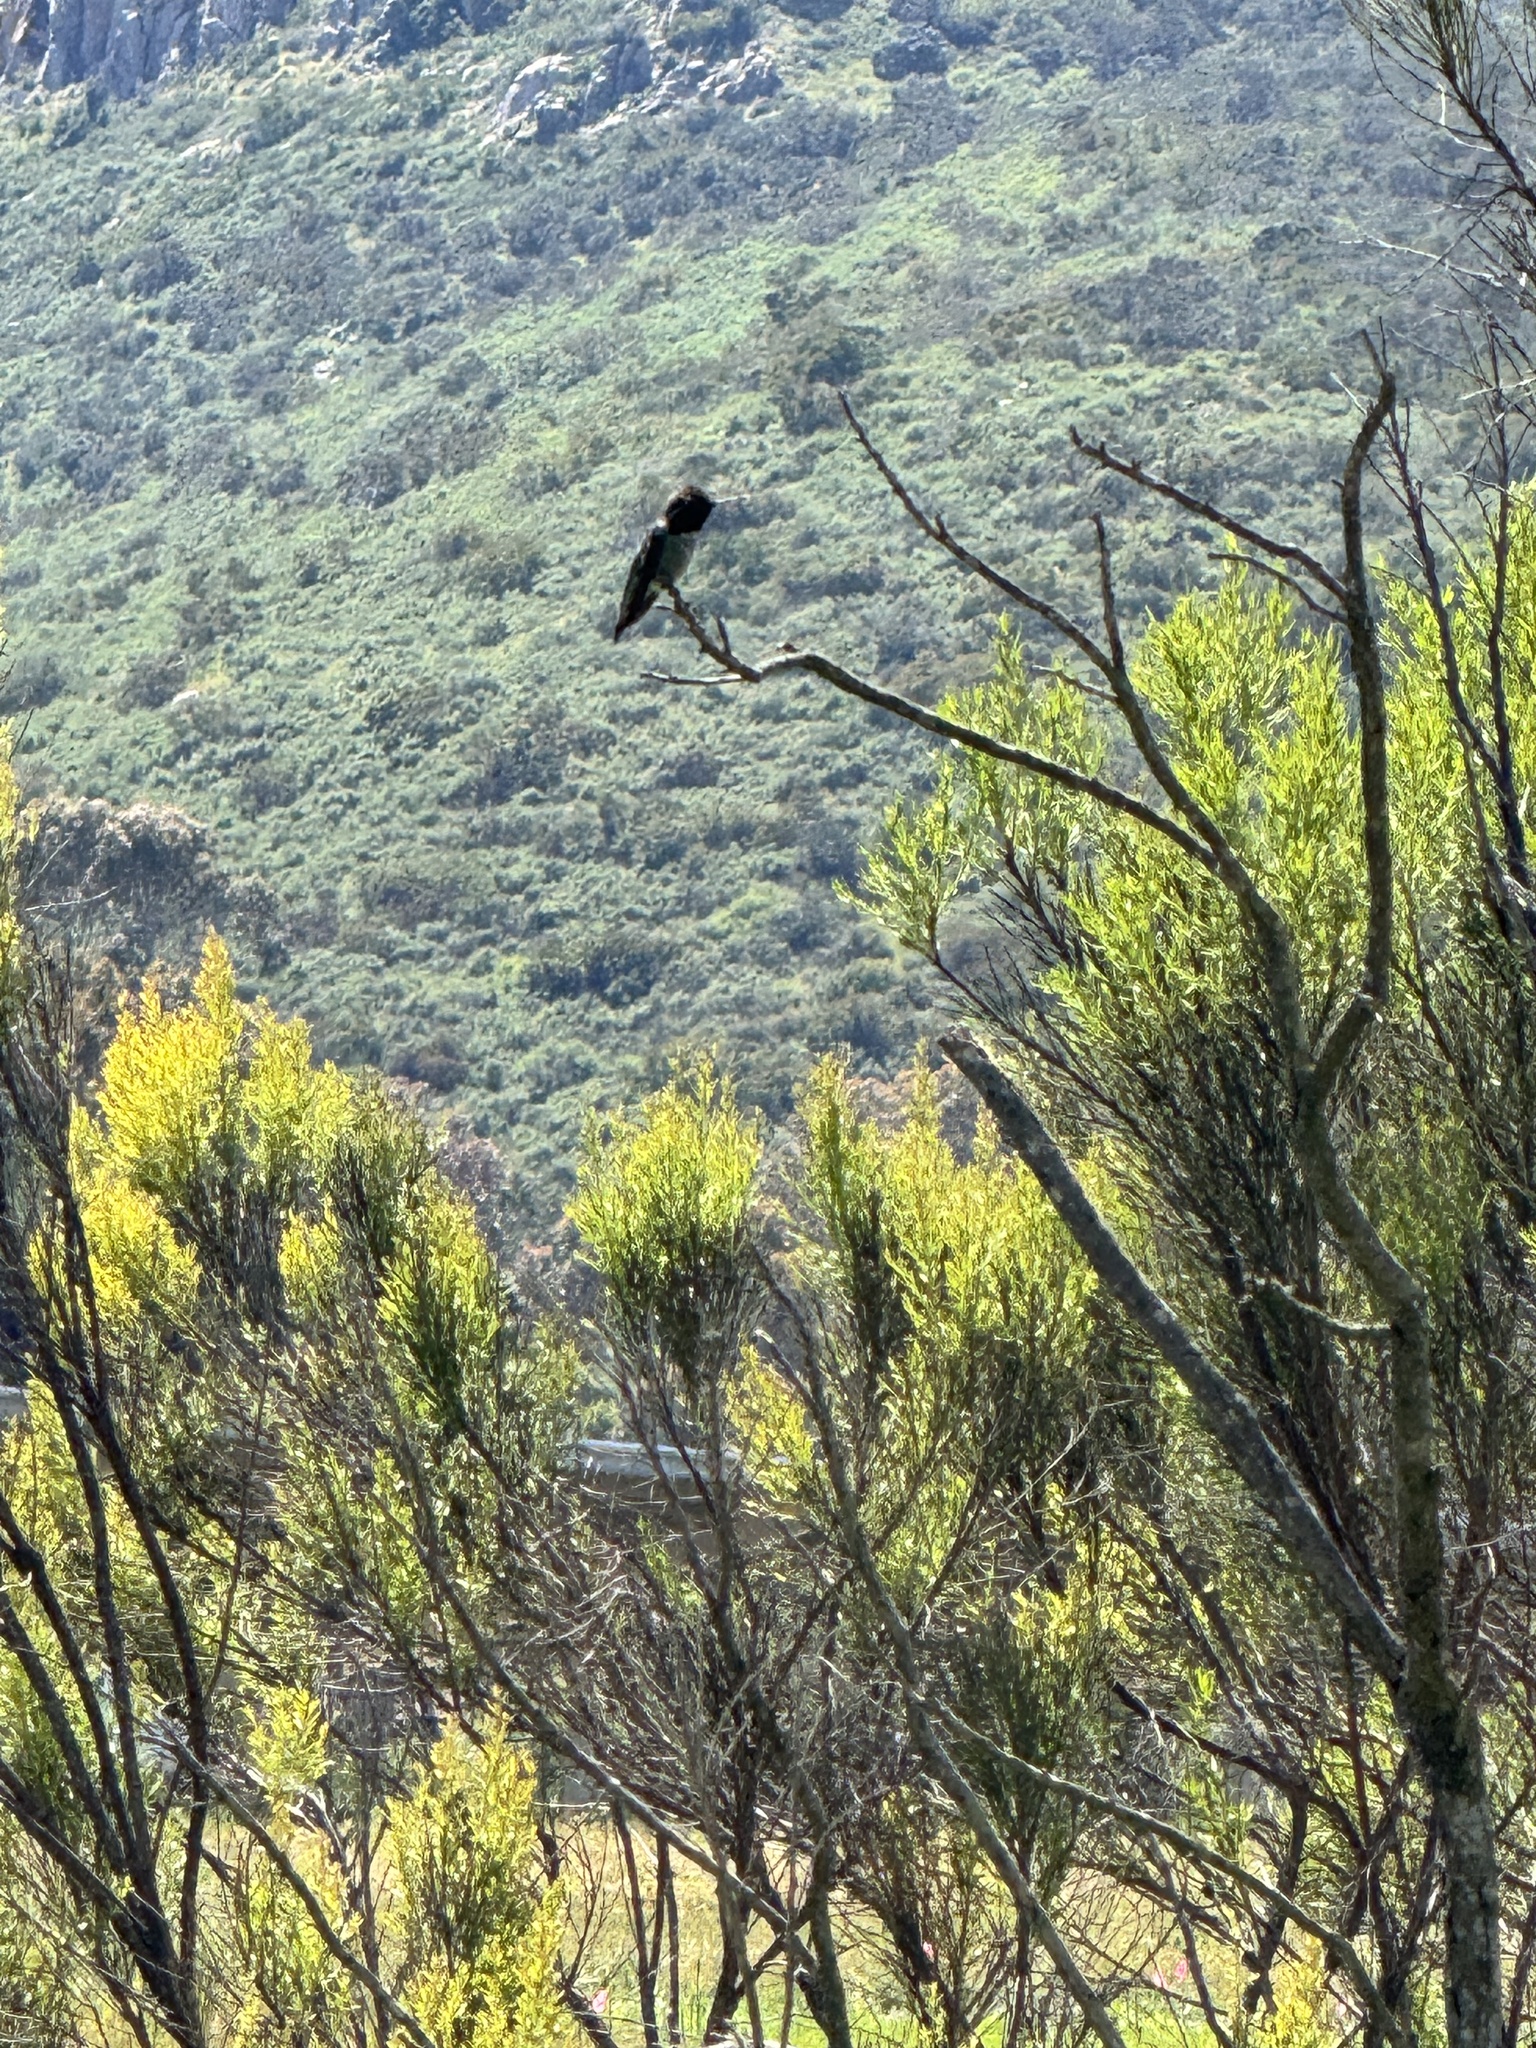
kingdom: Animalia
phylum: Chordata
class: Aves
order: Apodiformes
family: Trochilidae
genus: Calypte
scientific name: Calypte anna
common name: Anna's hummingbird
